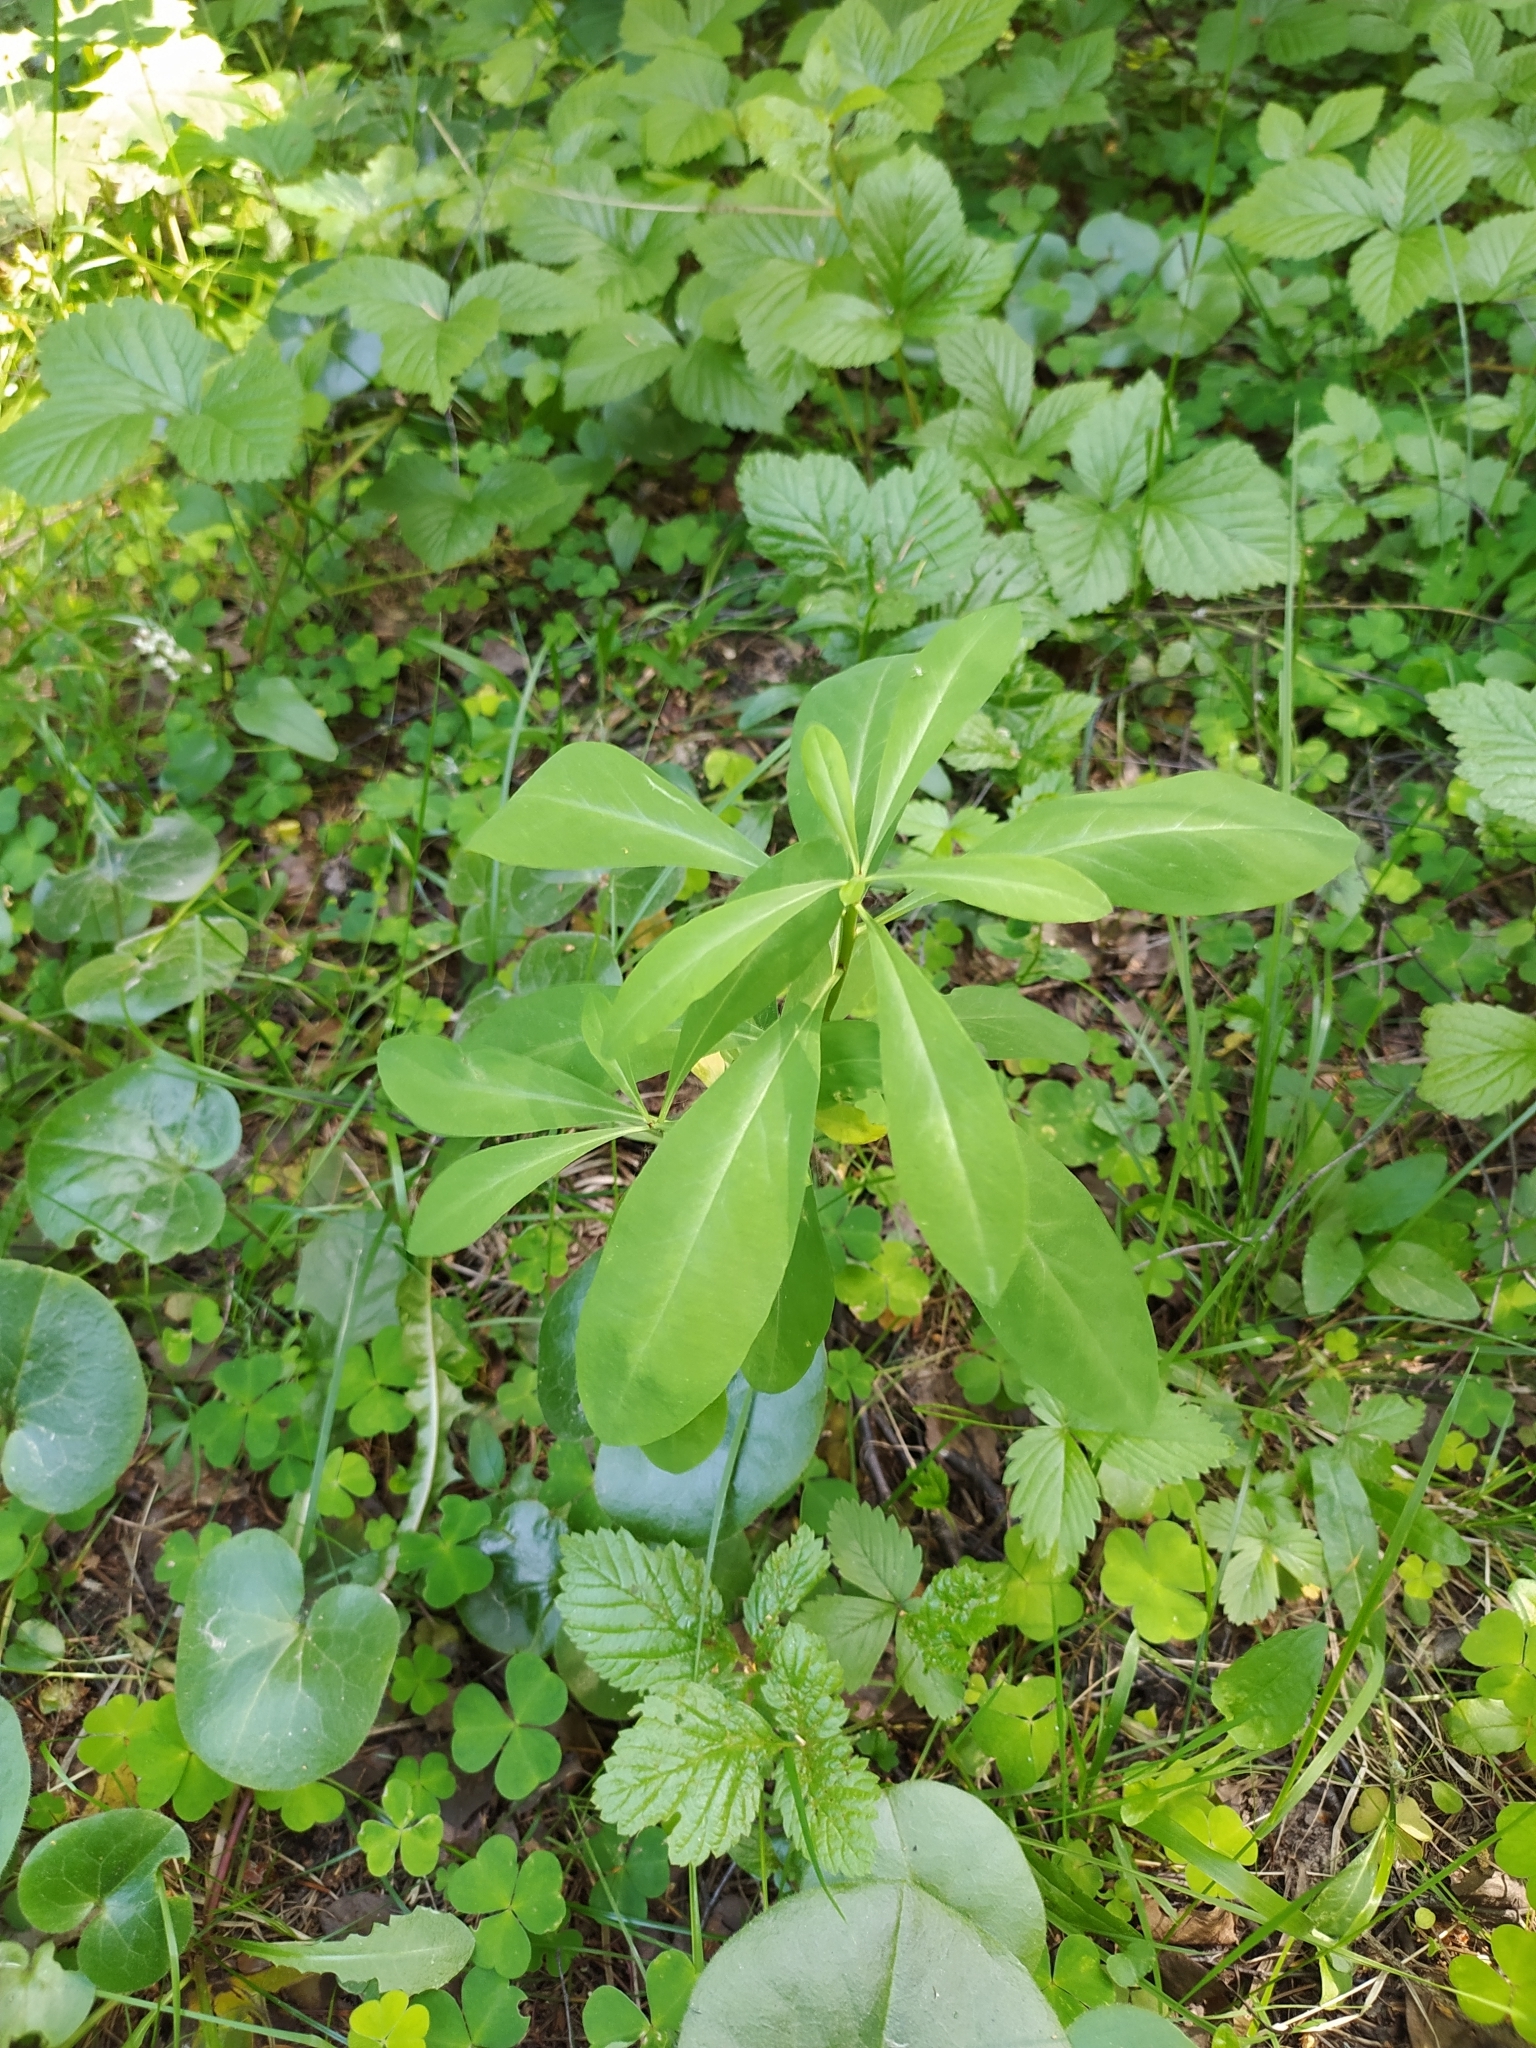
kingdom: Plantae
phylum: Tracheophyta
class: Magnoliopsida
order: Malvales
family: Thymelaeaceae
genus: Daphne
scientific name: Daphne mezereum
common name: Mezereon
